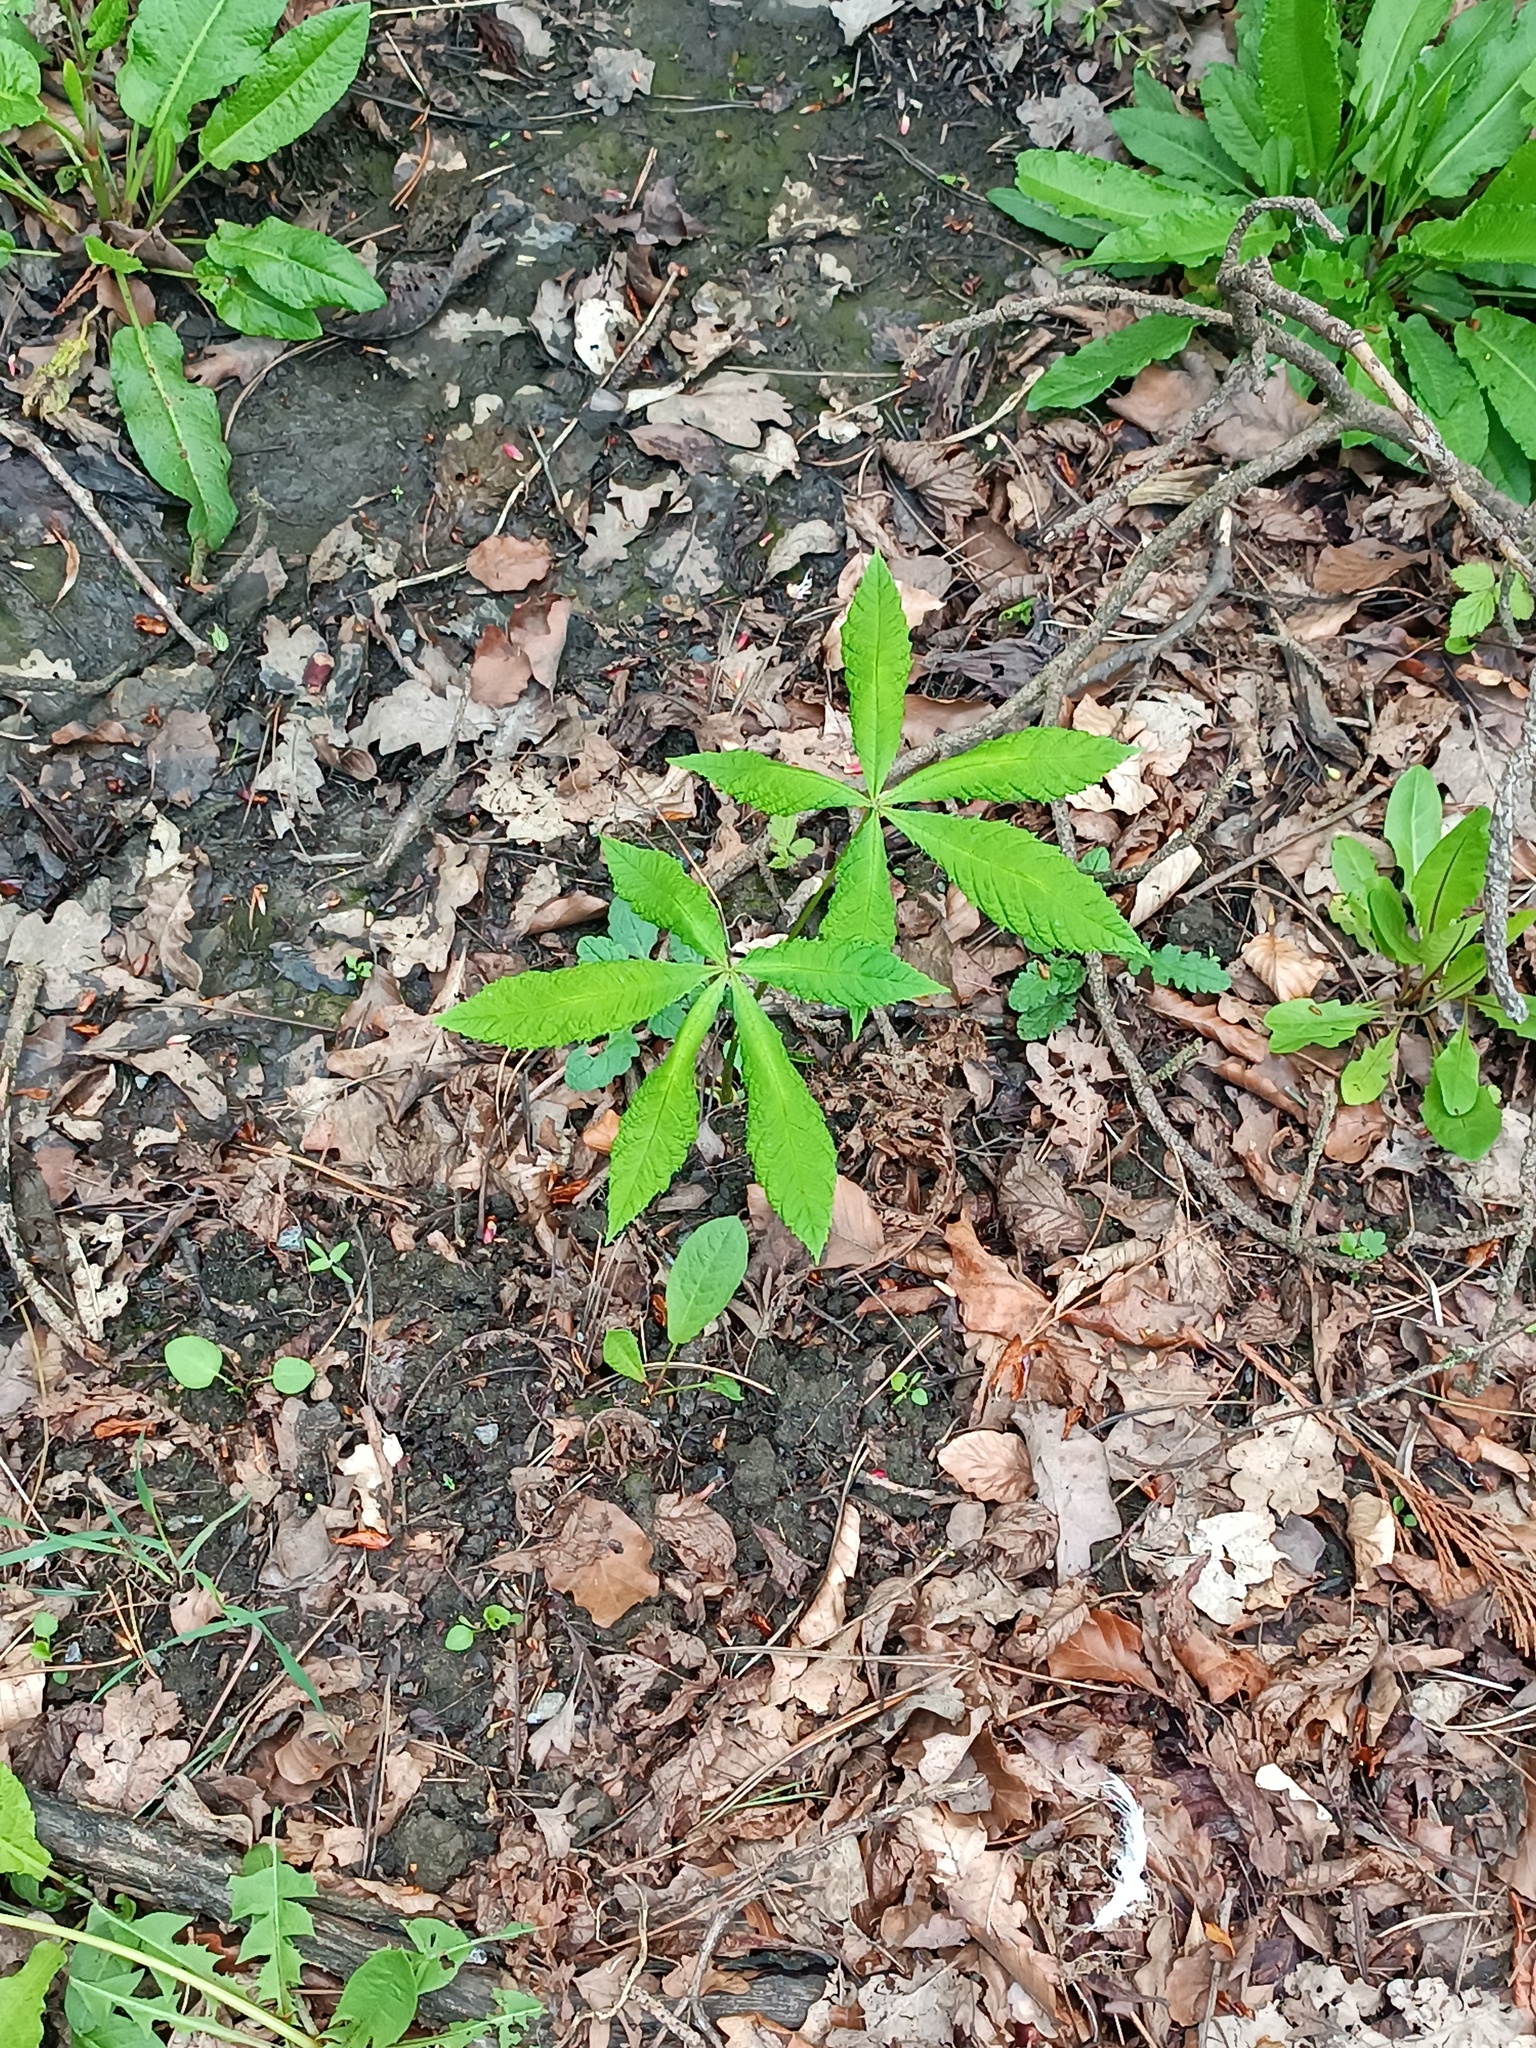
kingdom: Plantae
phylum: Tracheophyta
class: Magnoliopsida
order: Sapindales
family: Sapindaceae
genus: Aesculus
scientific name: Aesculus hippocastanum
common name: Horse-chestnut
